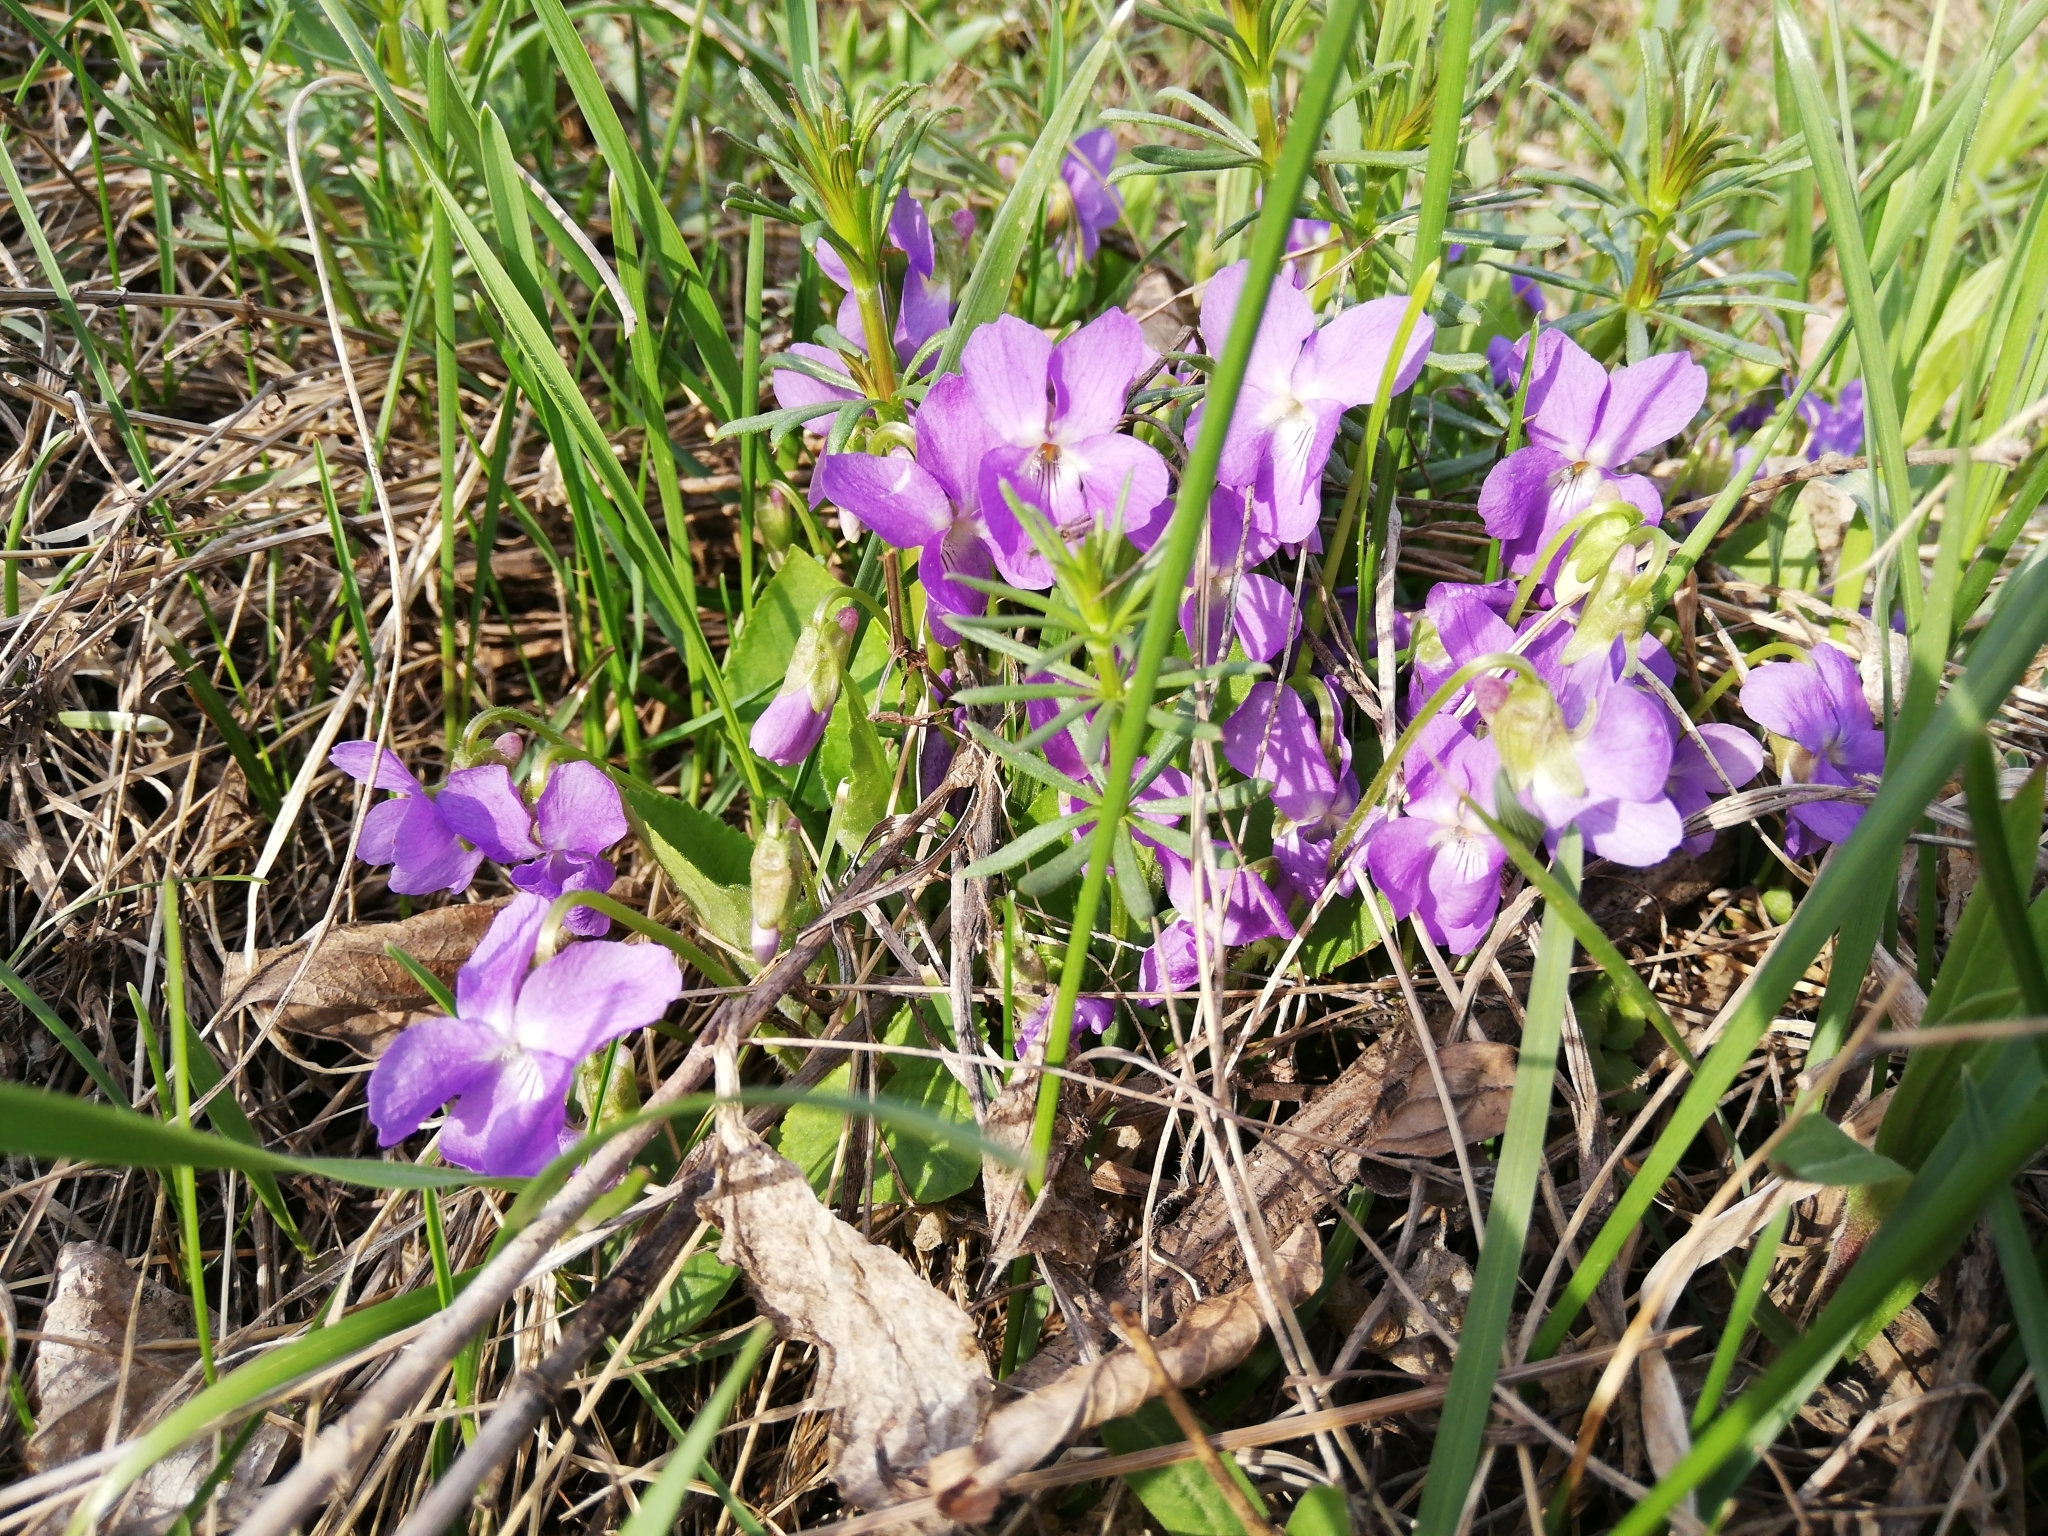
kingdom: Plantae
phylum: Tracheophyta
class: Magnoliopsida
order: Malpighiales
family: Violaceae
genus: Viola
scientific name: Viola hirta
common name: Hairy violet
